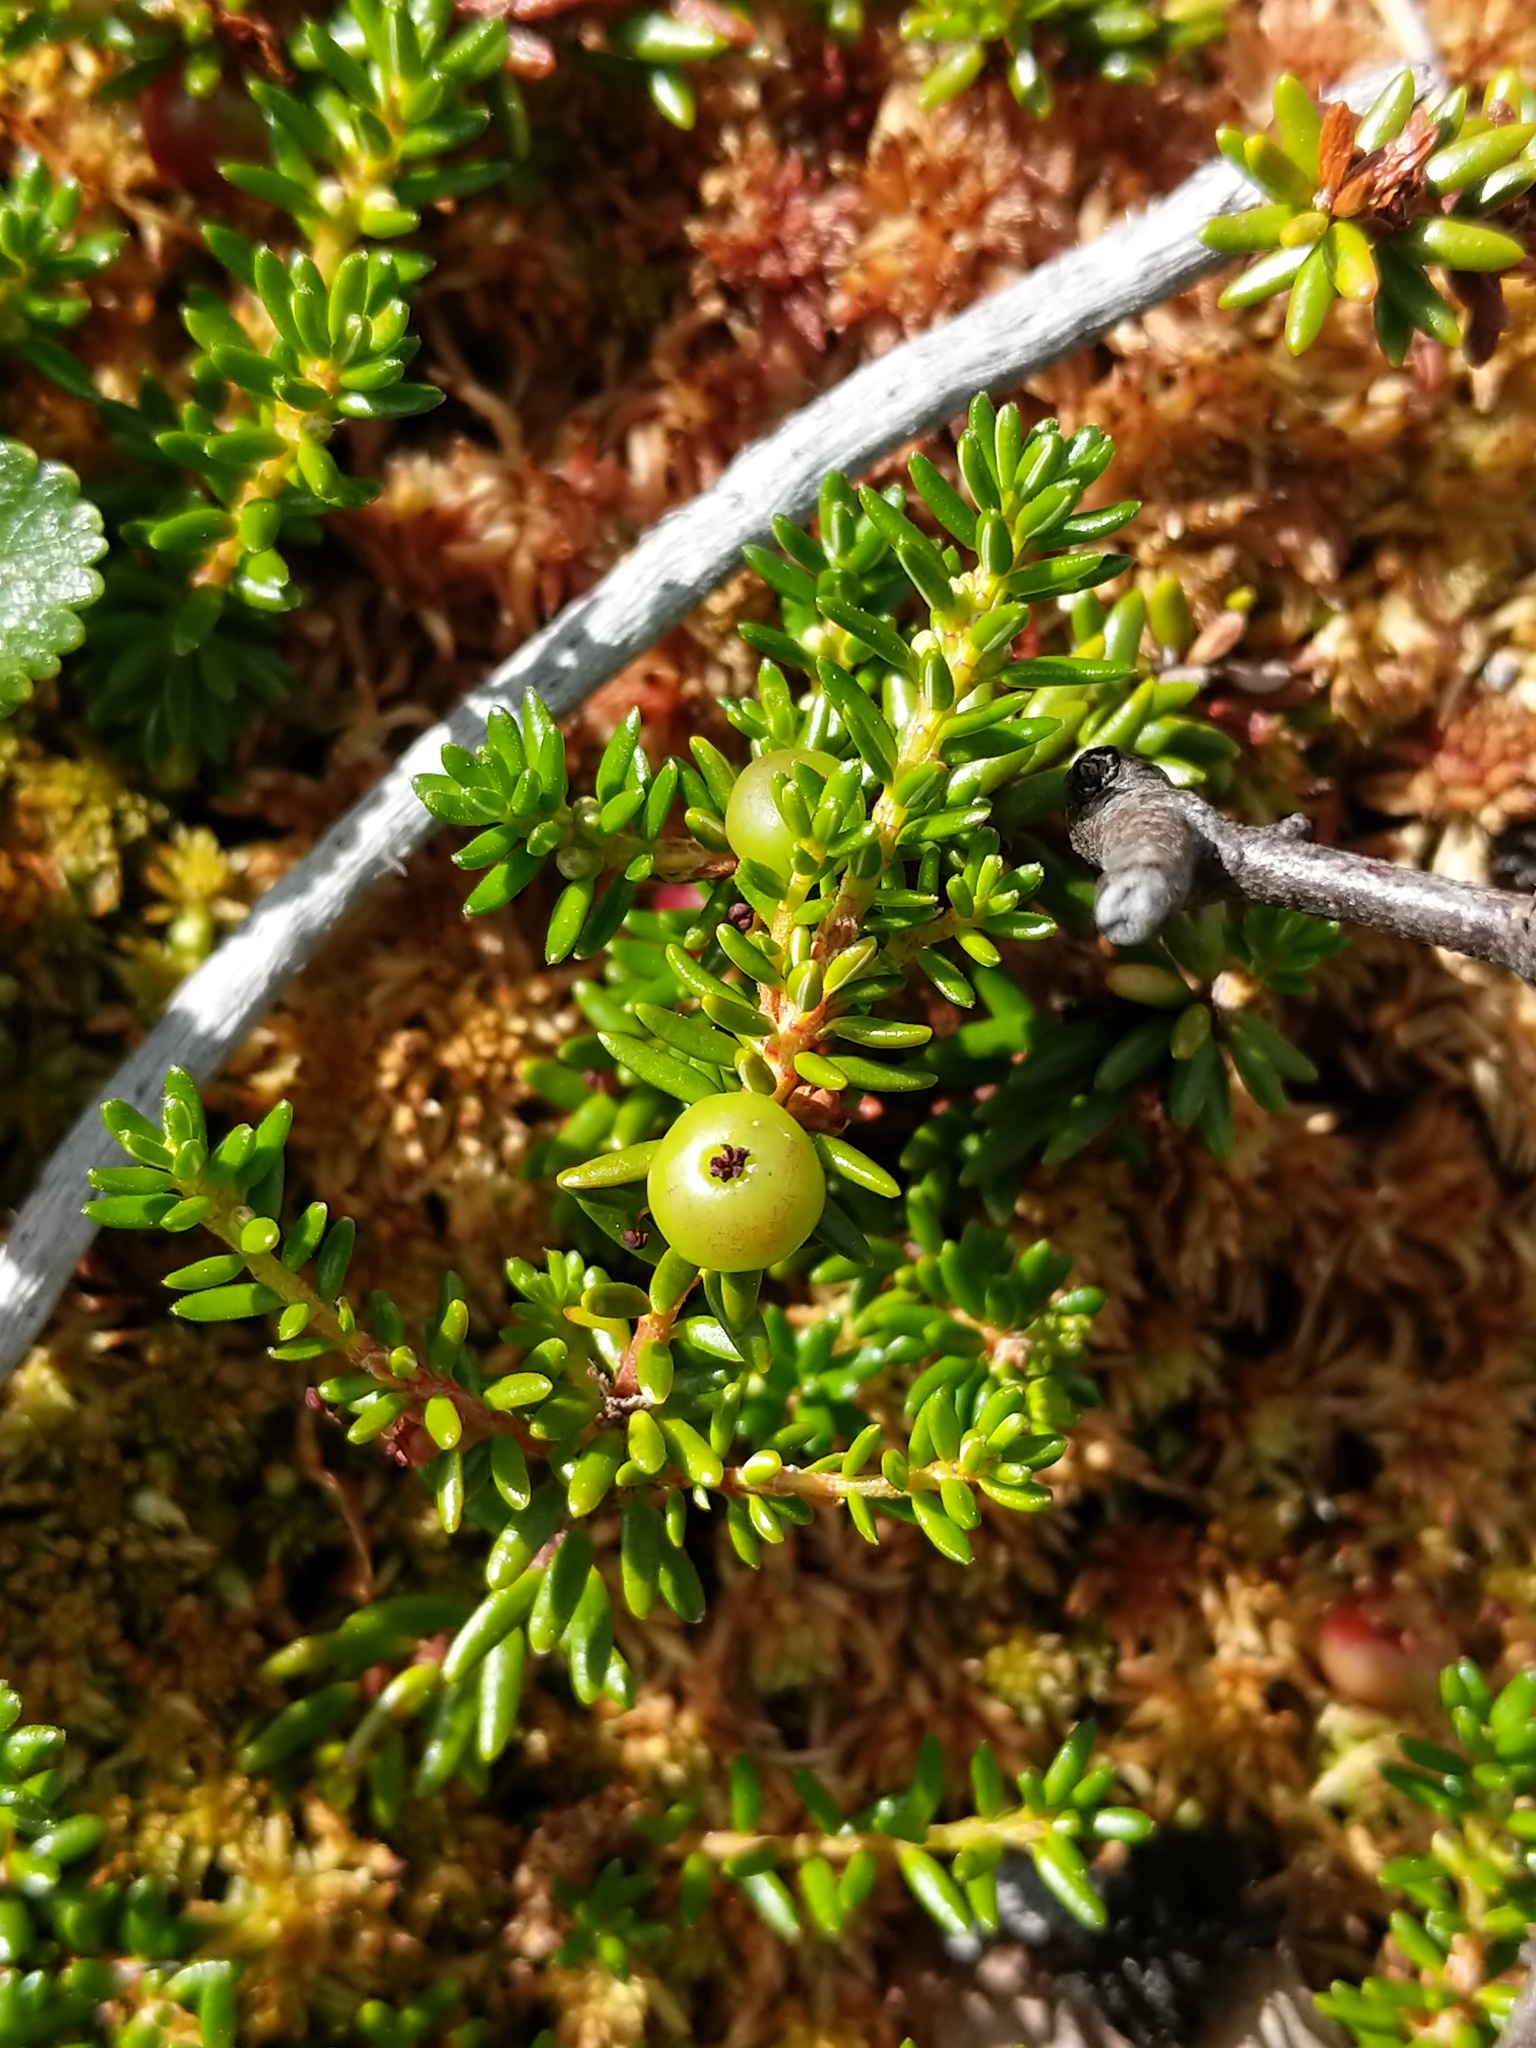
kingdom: Plantae
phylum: Tracheophyta
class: Magnoliopsida
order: Ericales
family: Ericaceae
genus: Empetrum
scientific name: Empetrum nigrum
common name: Black crowberry
